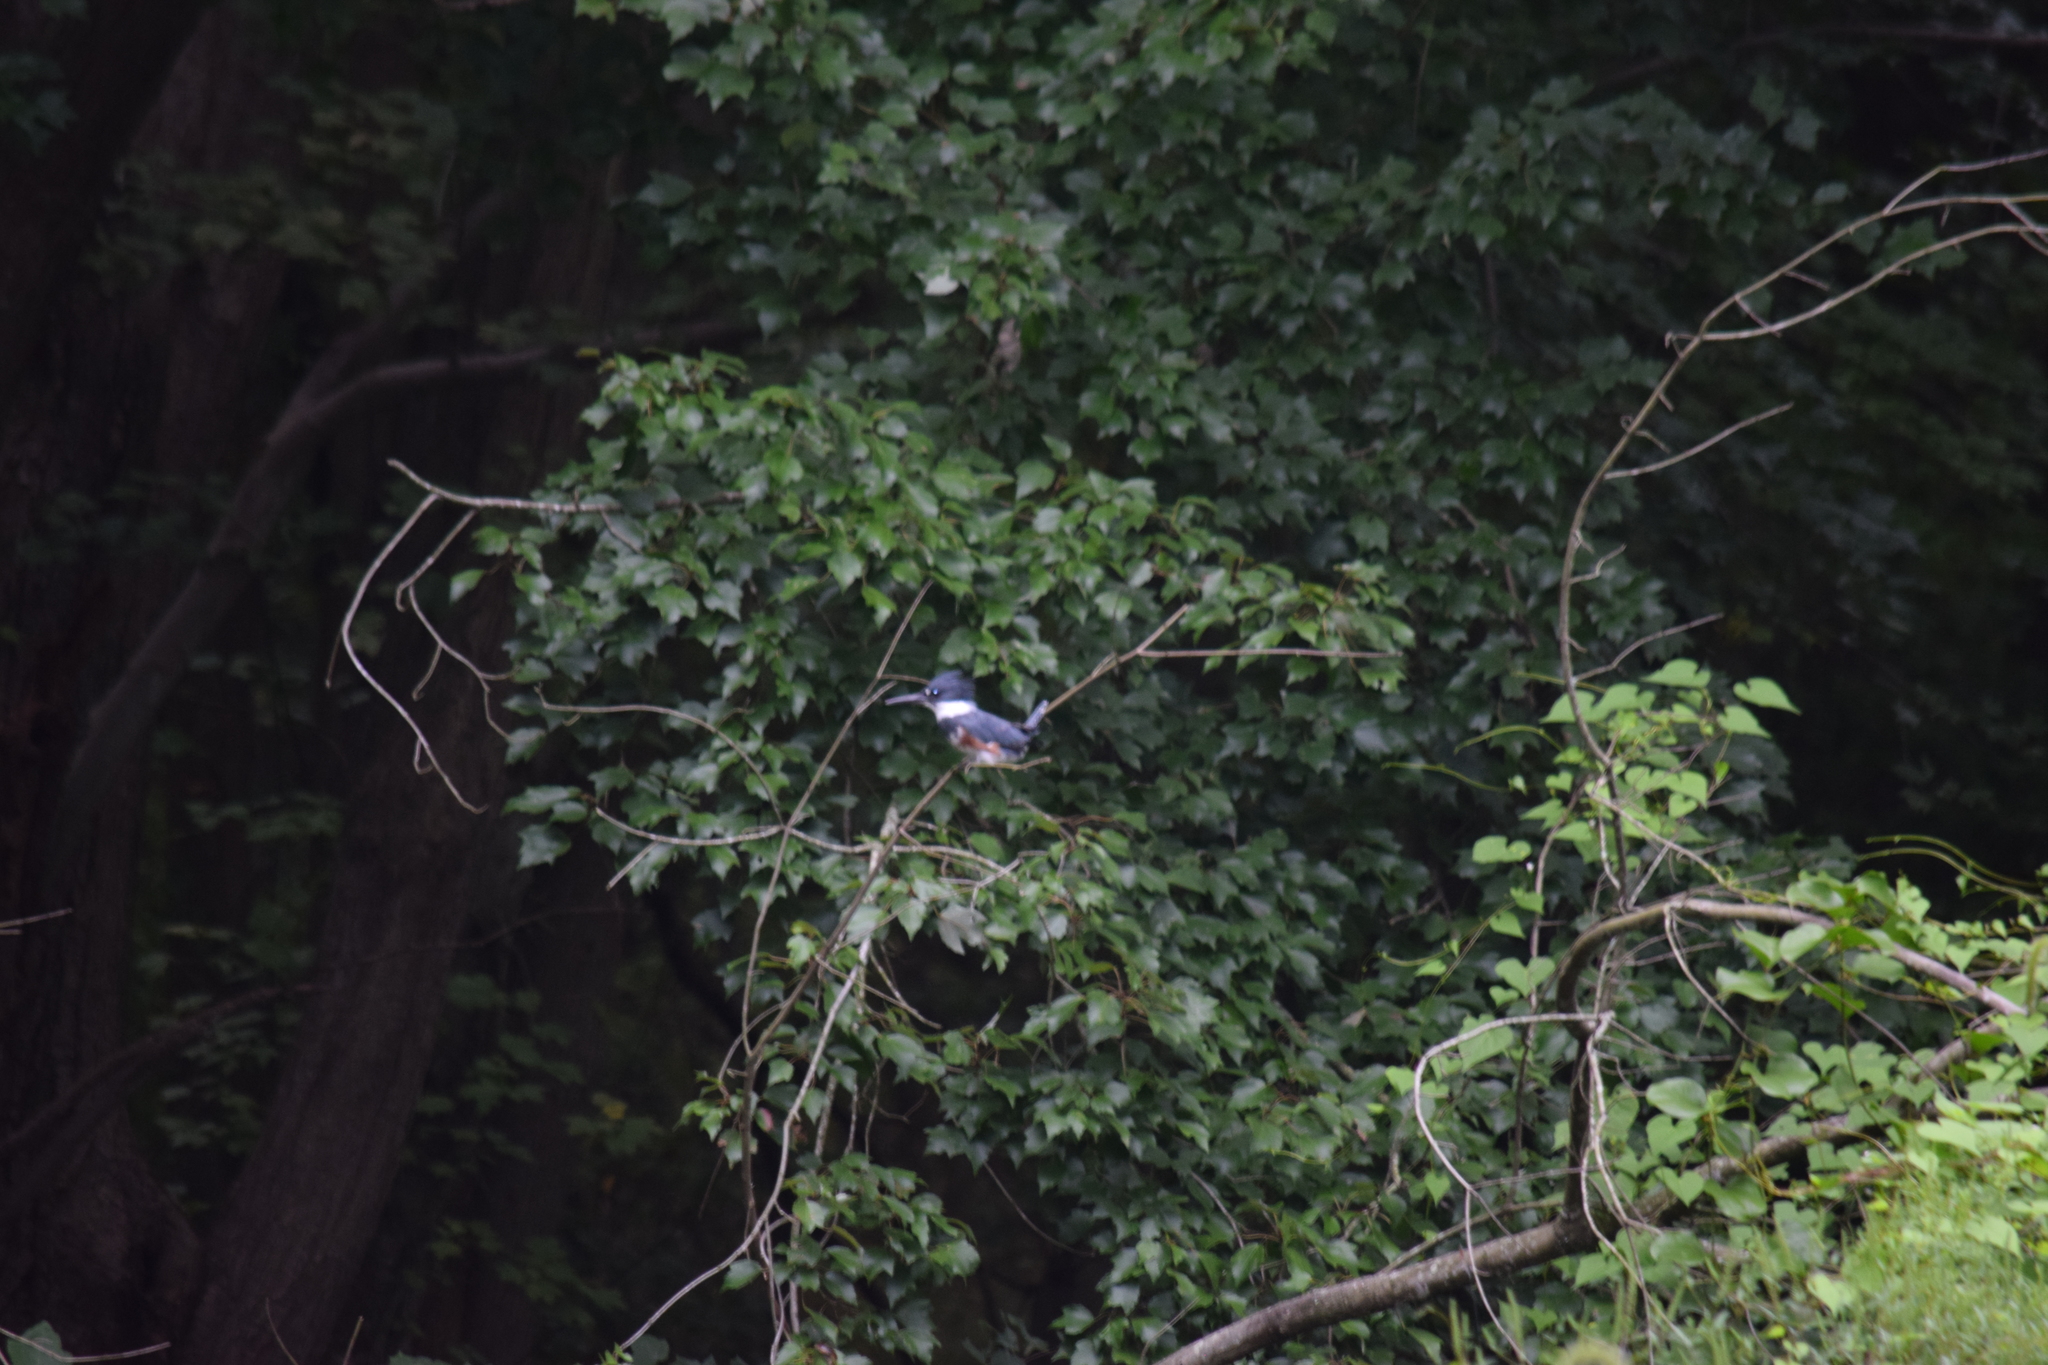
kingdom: Animalia
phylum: Chordata
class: Aves
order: Coraciiformes
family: Alcedinidae
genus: Megaceryle
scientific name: Megaceryle alcyon
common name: Belted kingfisher
